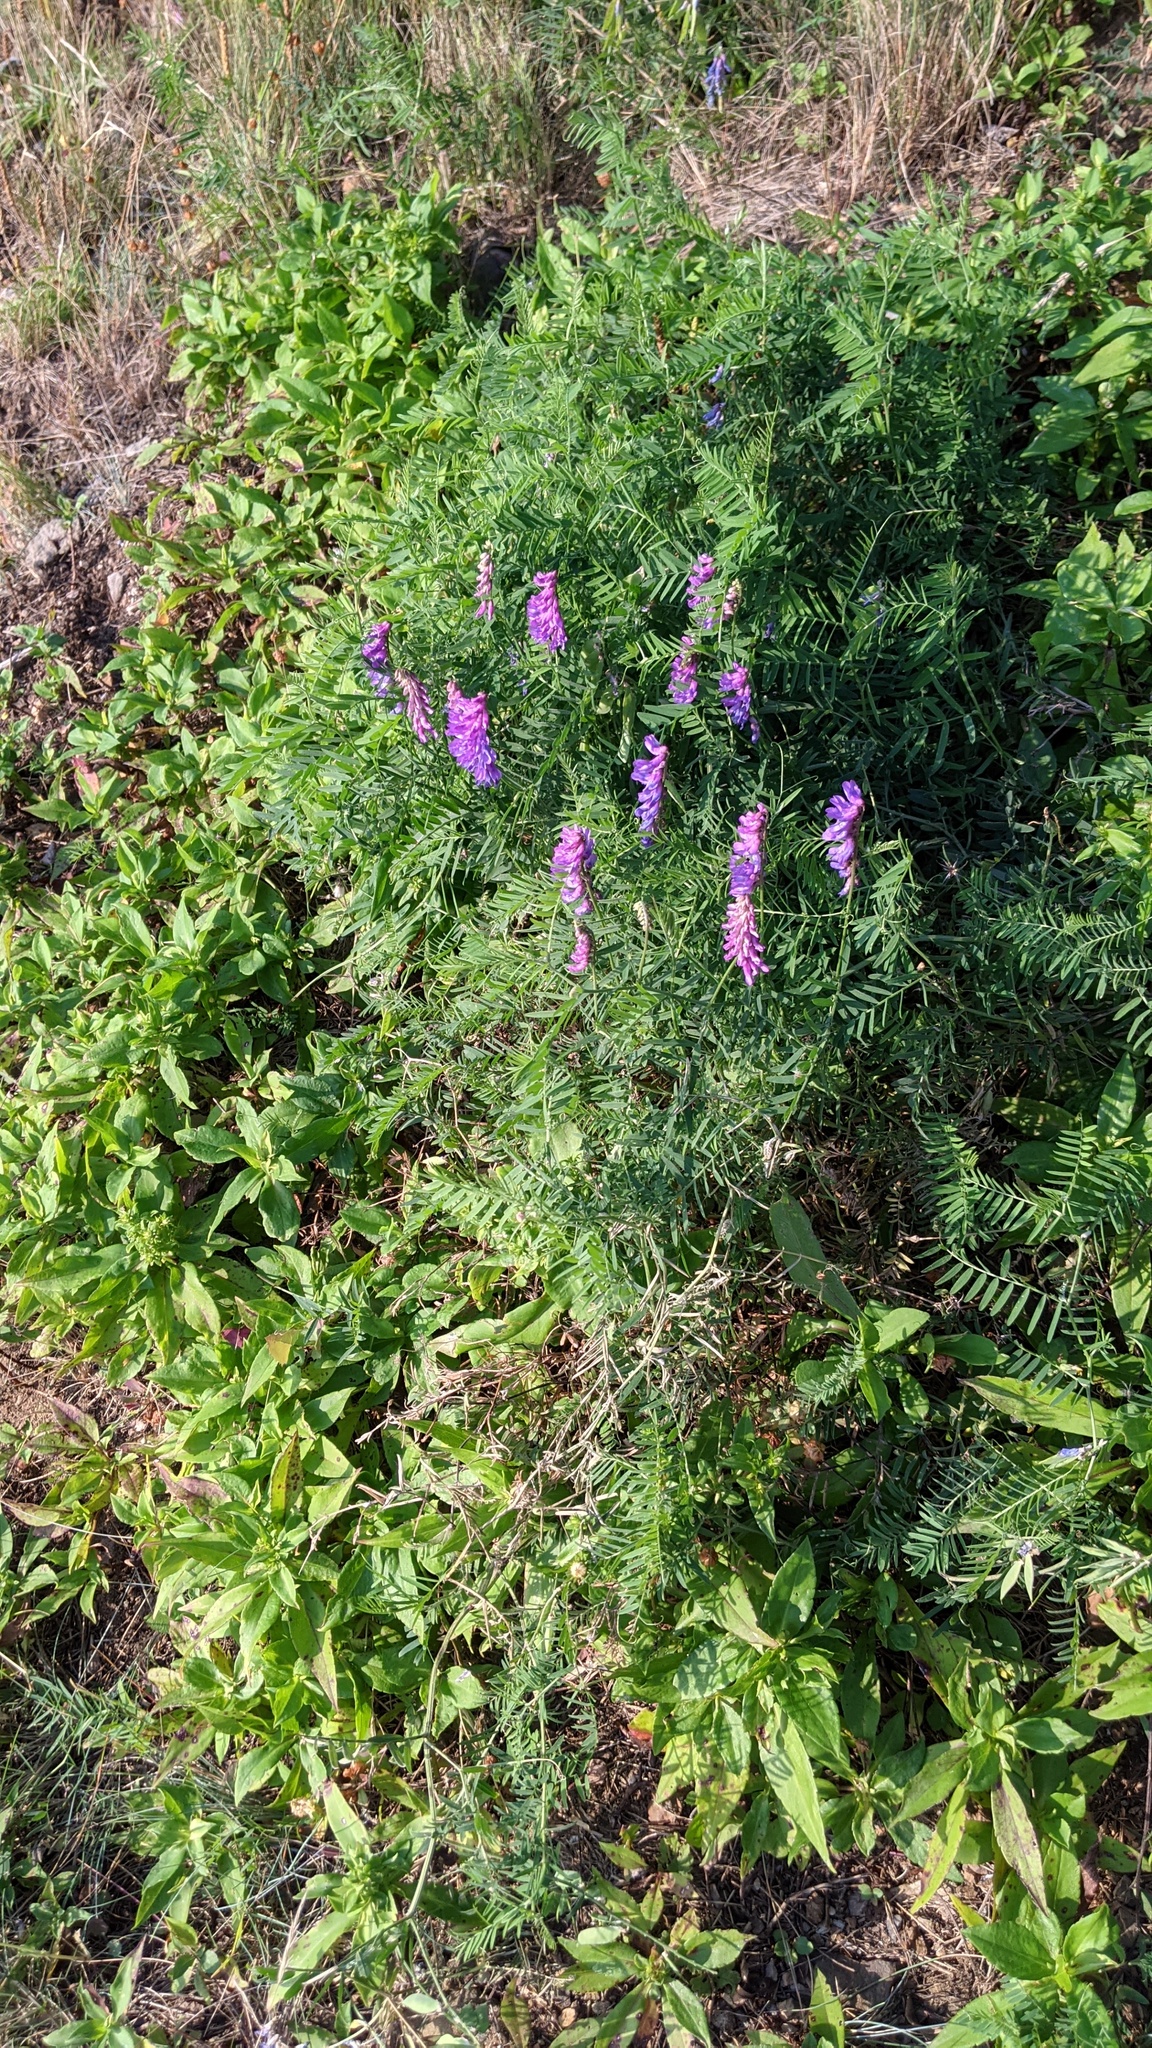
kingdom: Plantae
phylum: Tracheophyta
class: Magnoliopsida
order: Fabales
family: Fabaceae
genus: Vicia
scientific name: Vicia cracca
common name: Bird vetch
